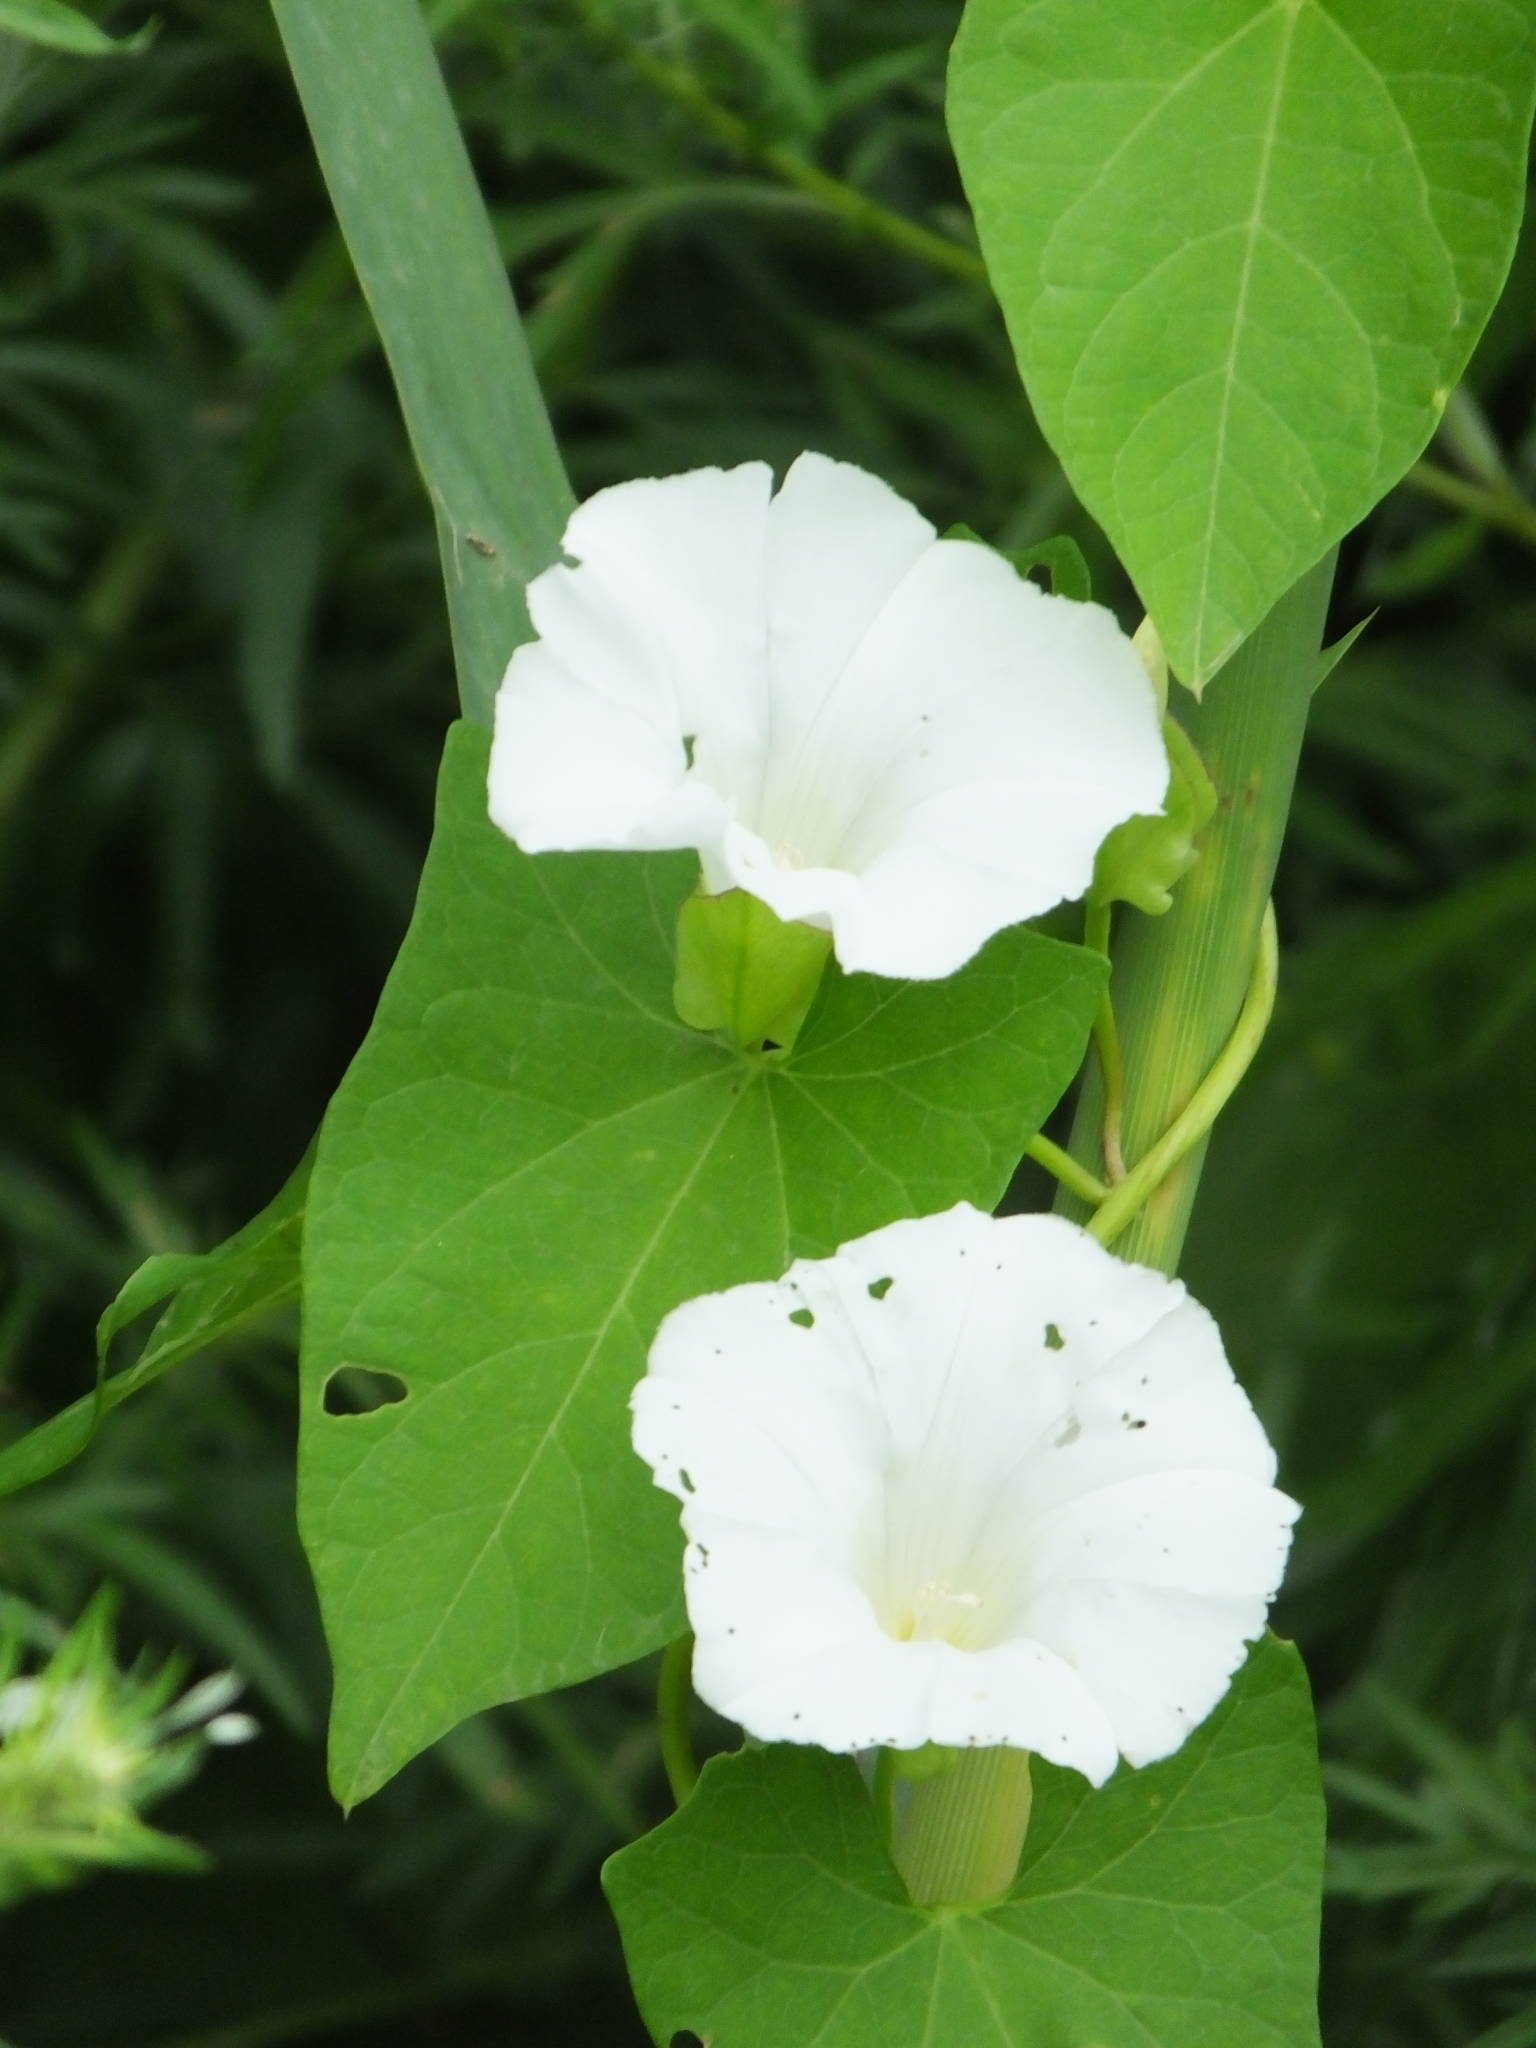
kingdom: Plantae
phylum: Tracheophyta
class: Magnoliopsida
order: Solanales
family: Convolvulaceae
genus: Calystegia
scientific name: Calystegia sepium
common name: Hedge bindweed
